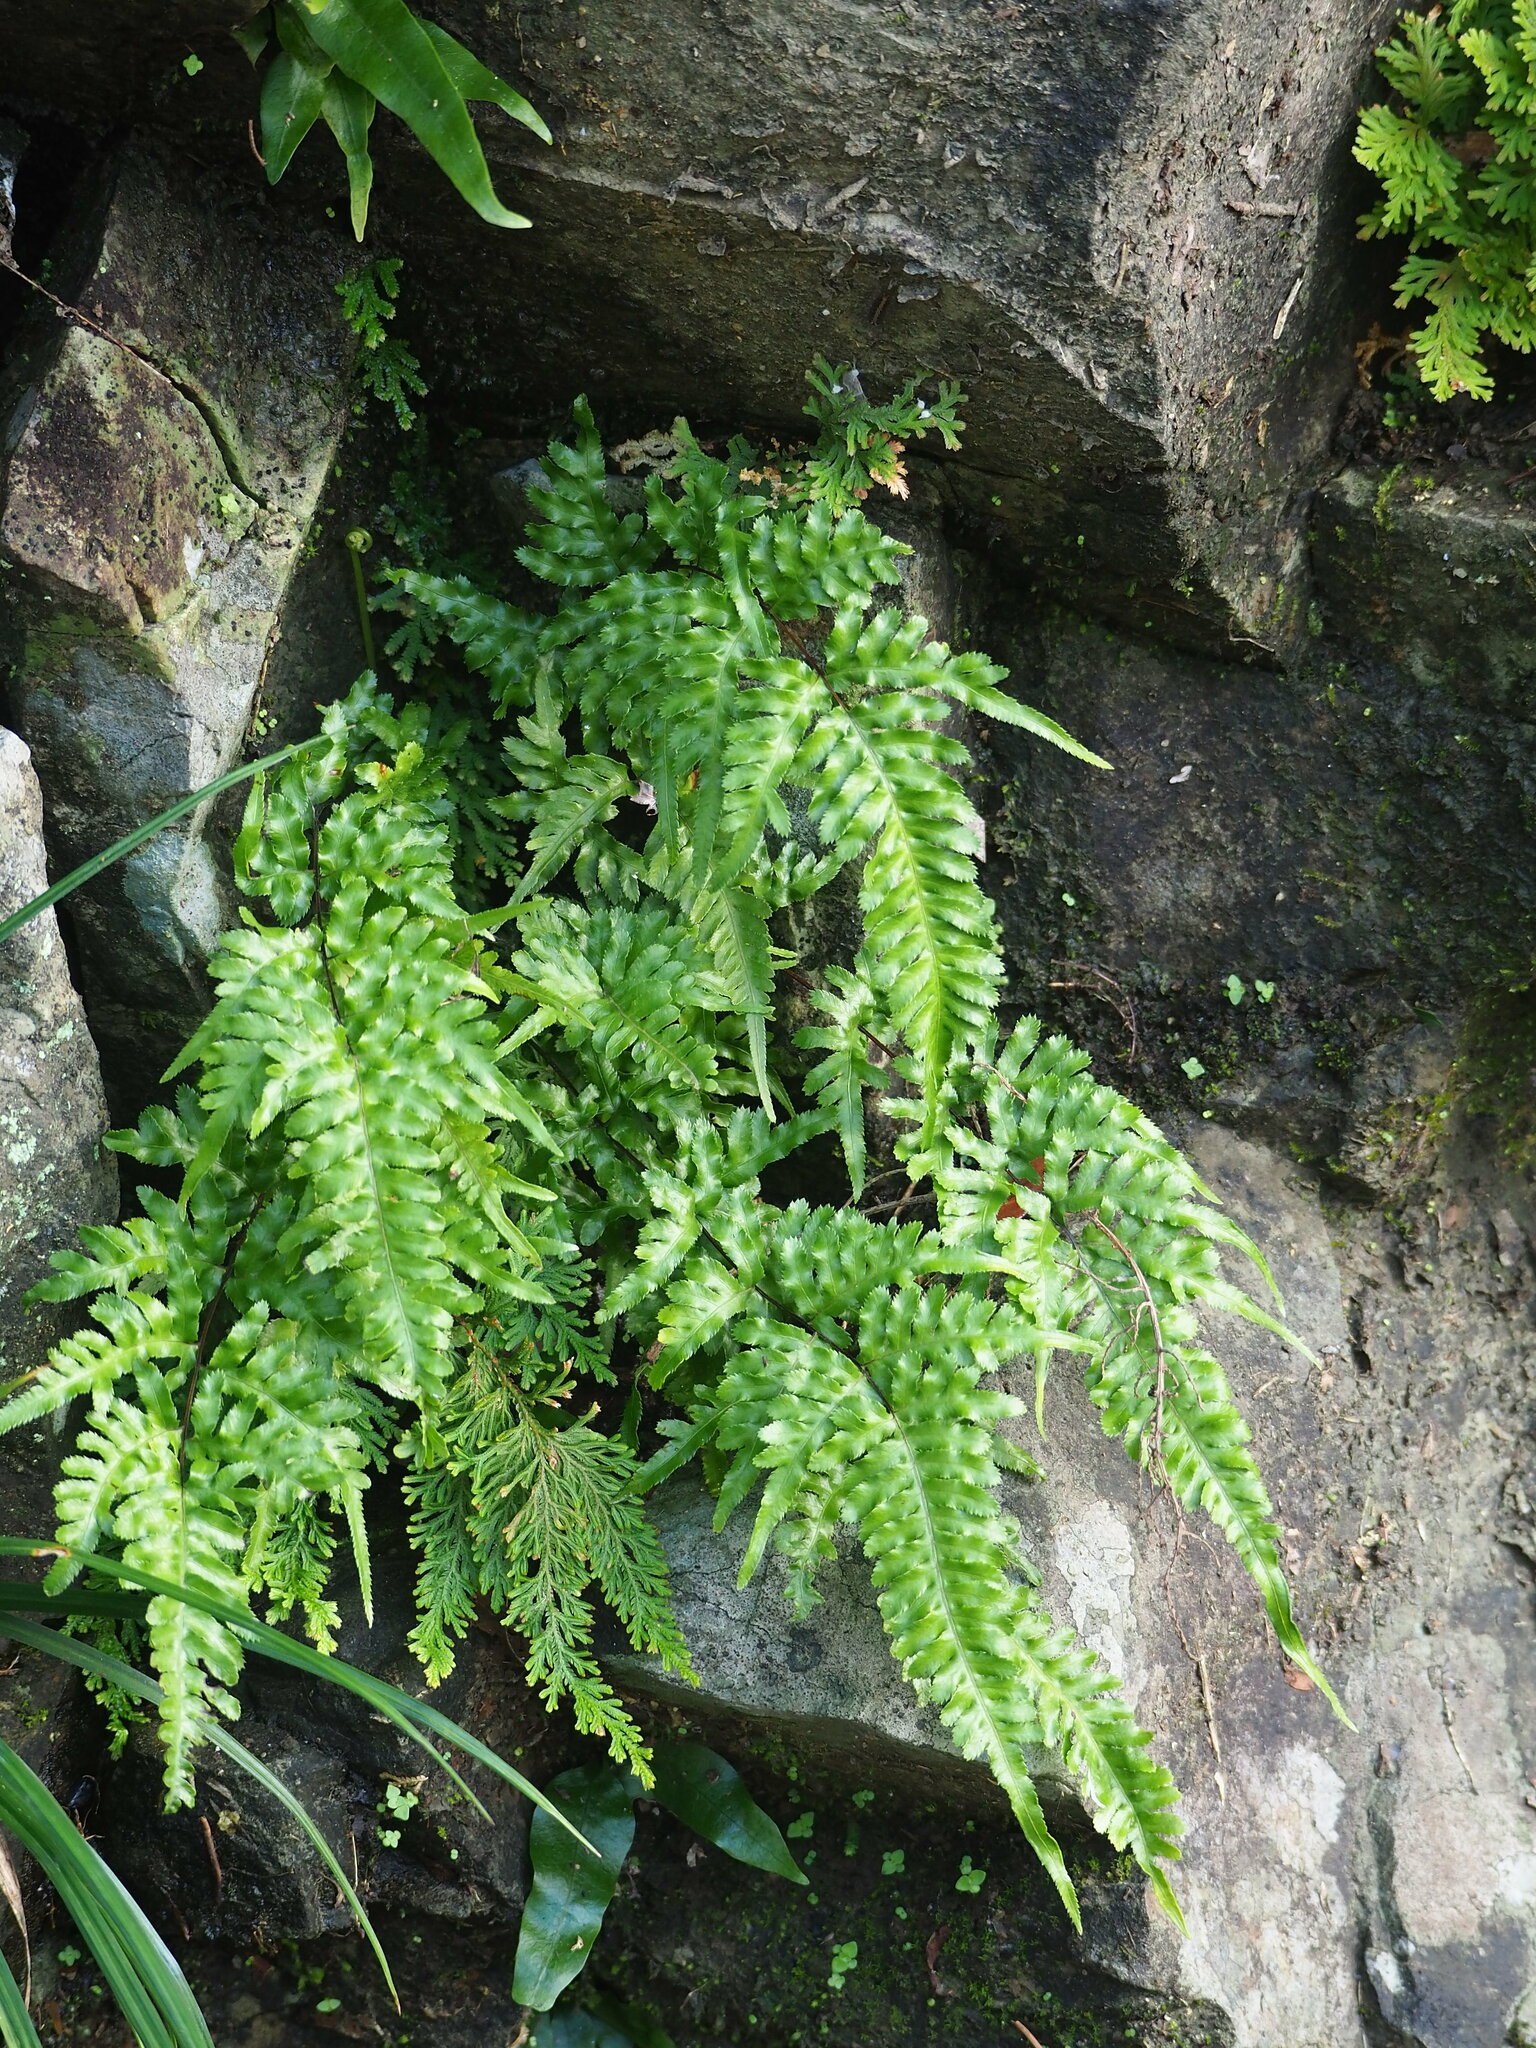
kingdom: Plantae
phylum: Tracheophyta
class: Polypodiopsida
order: Polypodiales
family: Pteridaceae
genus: Pteris
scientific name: Pteris dispar
